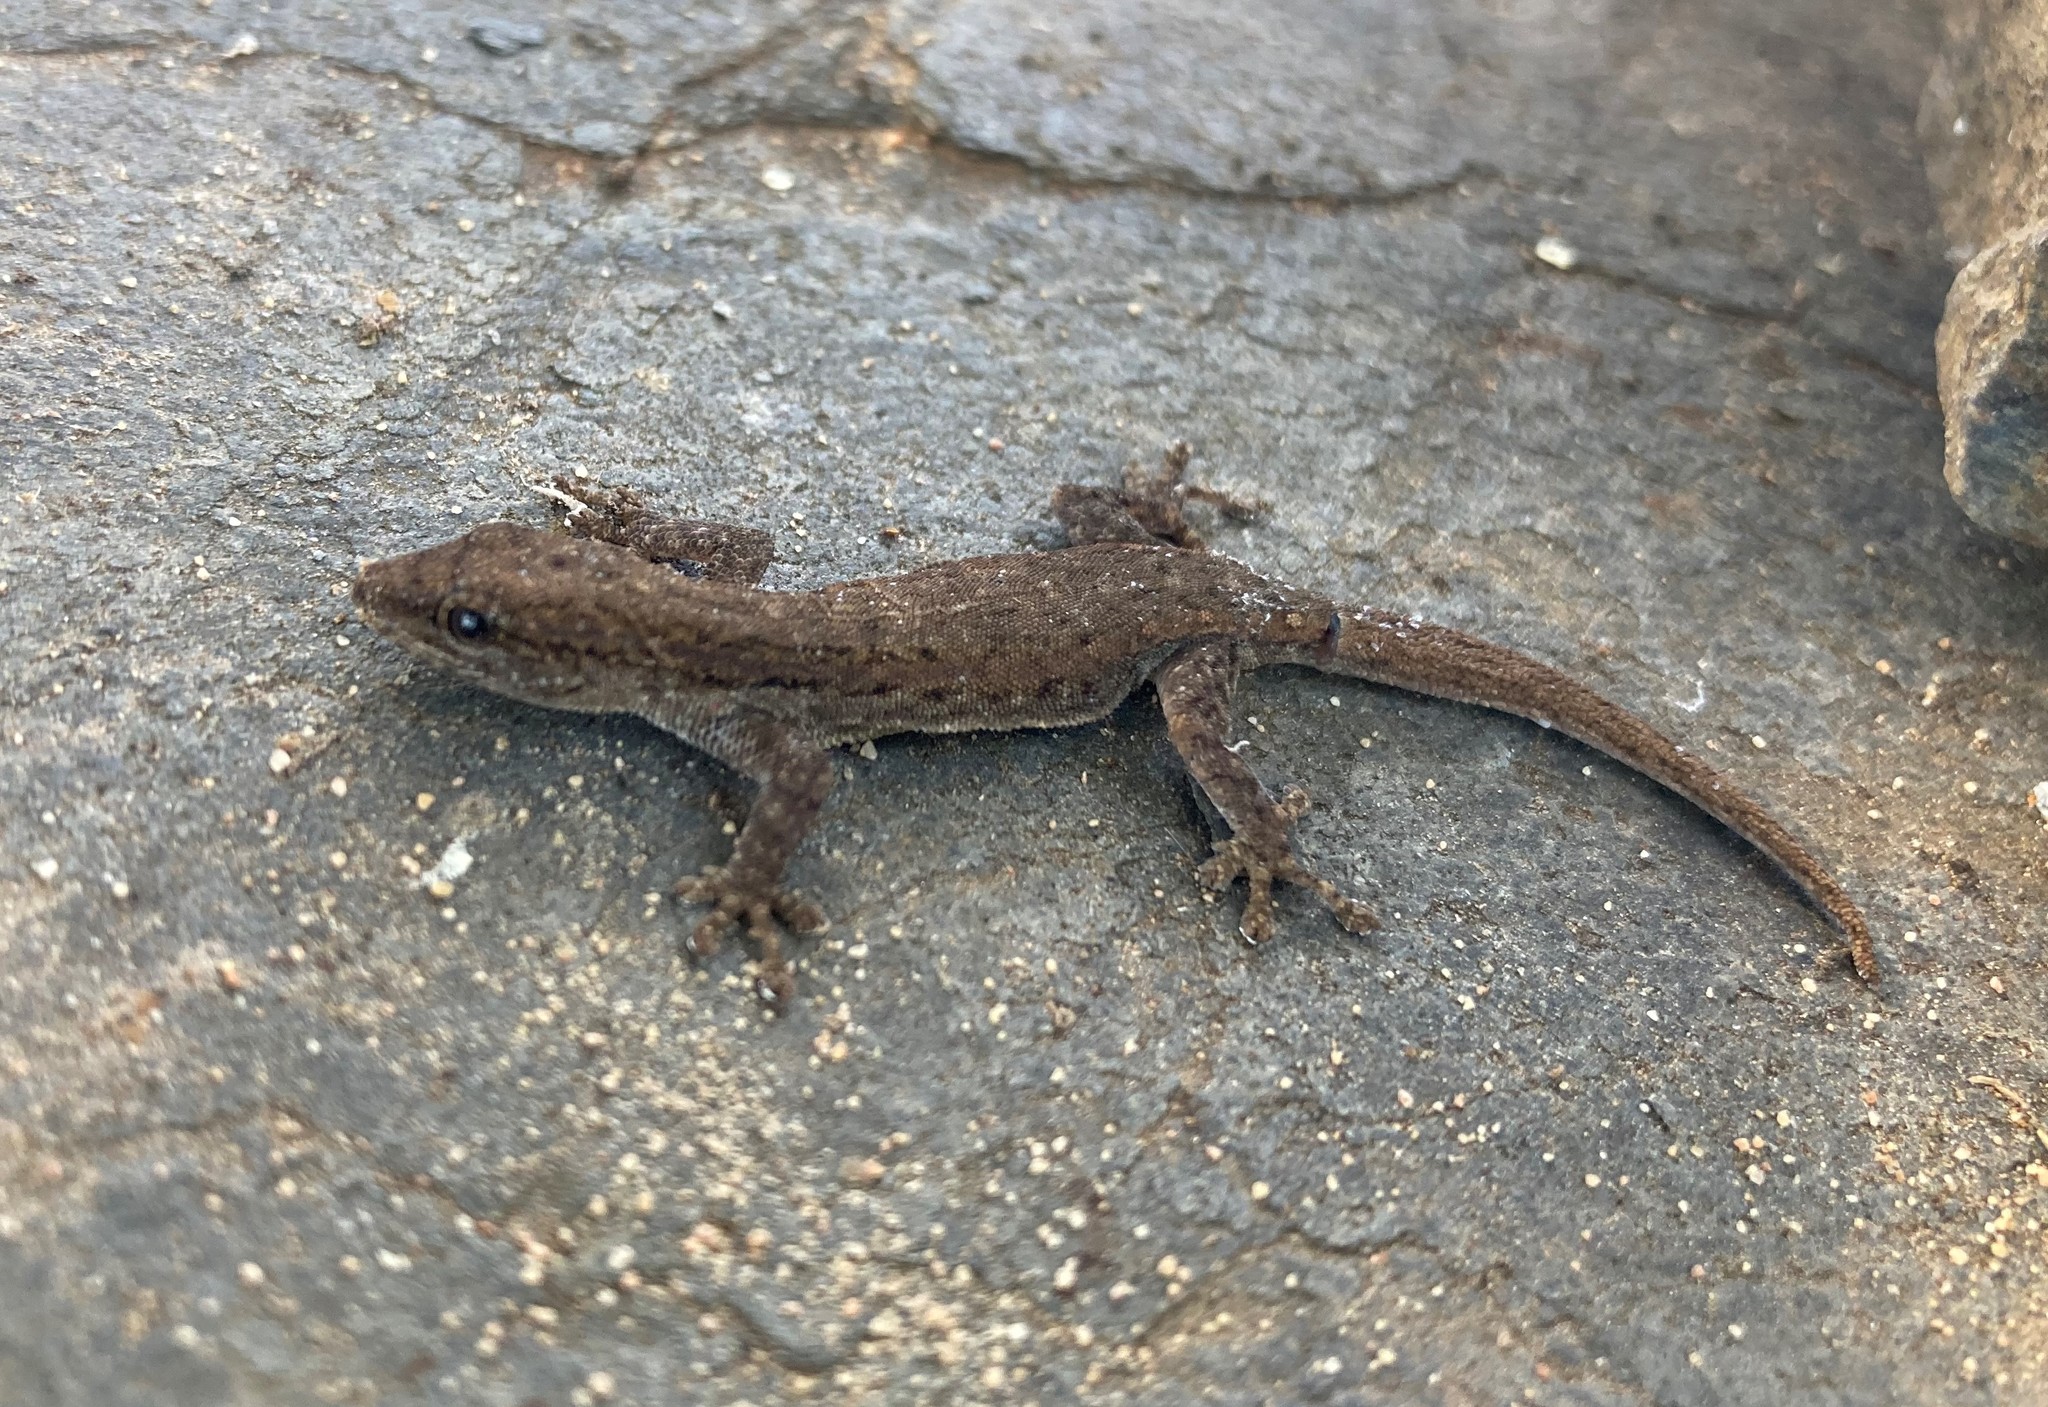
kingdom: Animalia
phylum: Chordata
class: Squamata
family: Gekkonidae
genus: Lygodactylus
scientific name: Lygodactylus capensis
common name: Cape dwarf gecko
